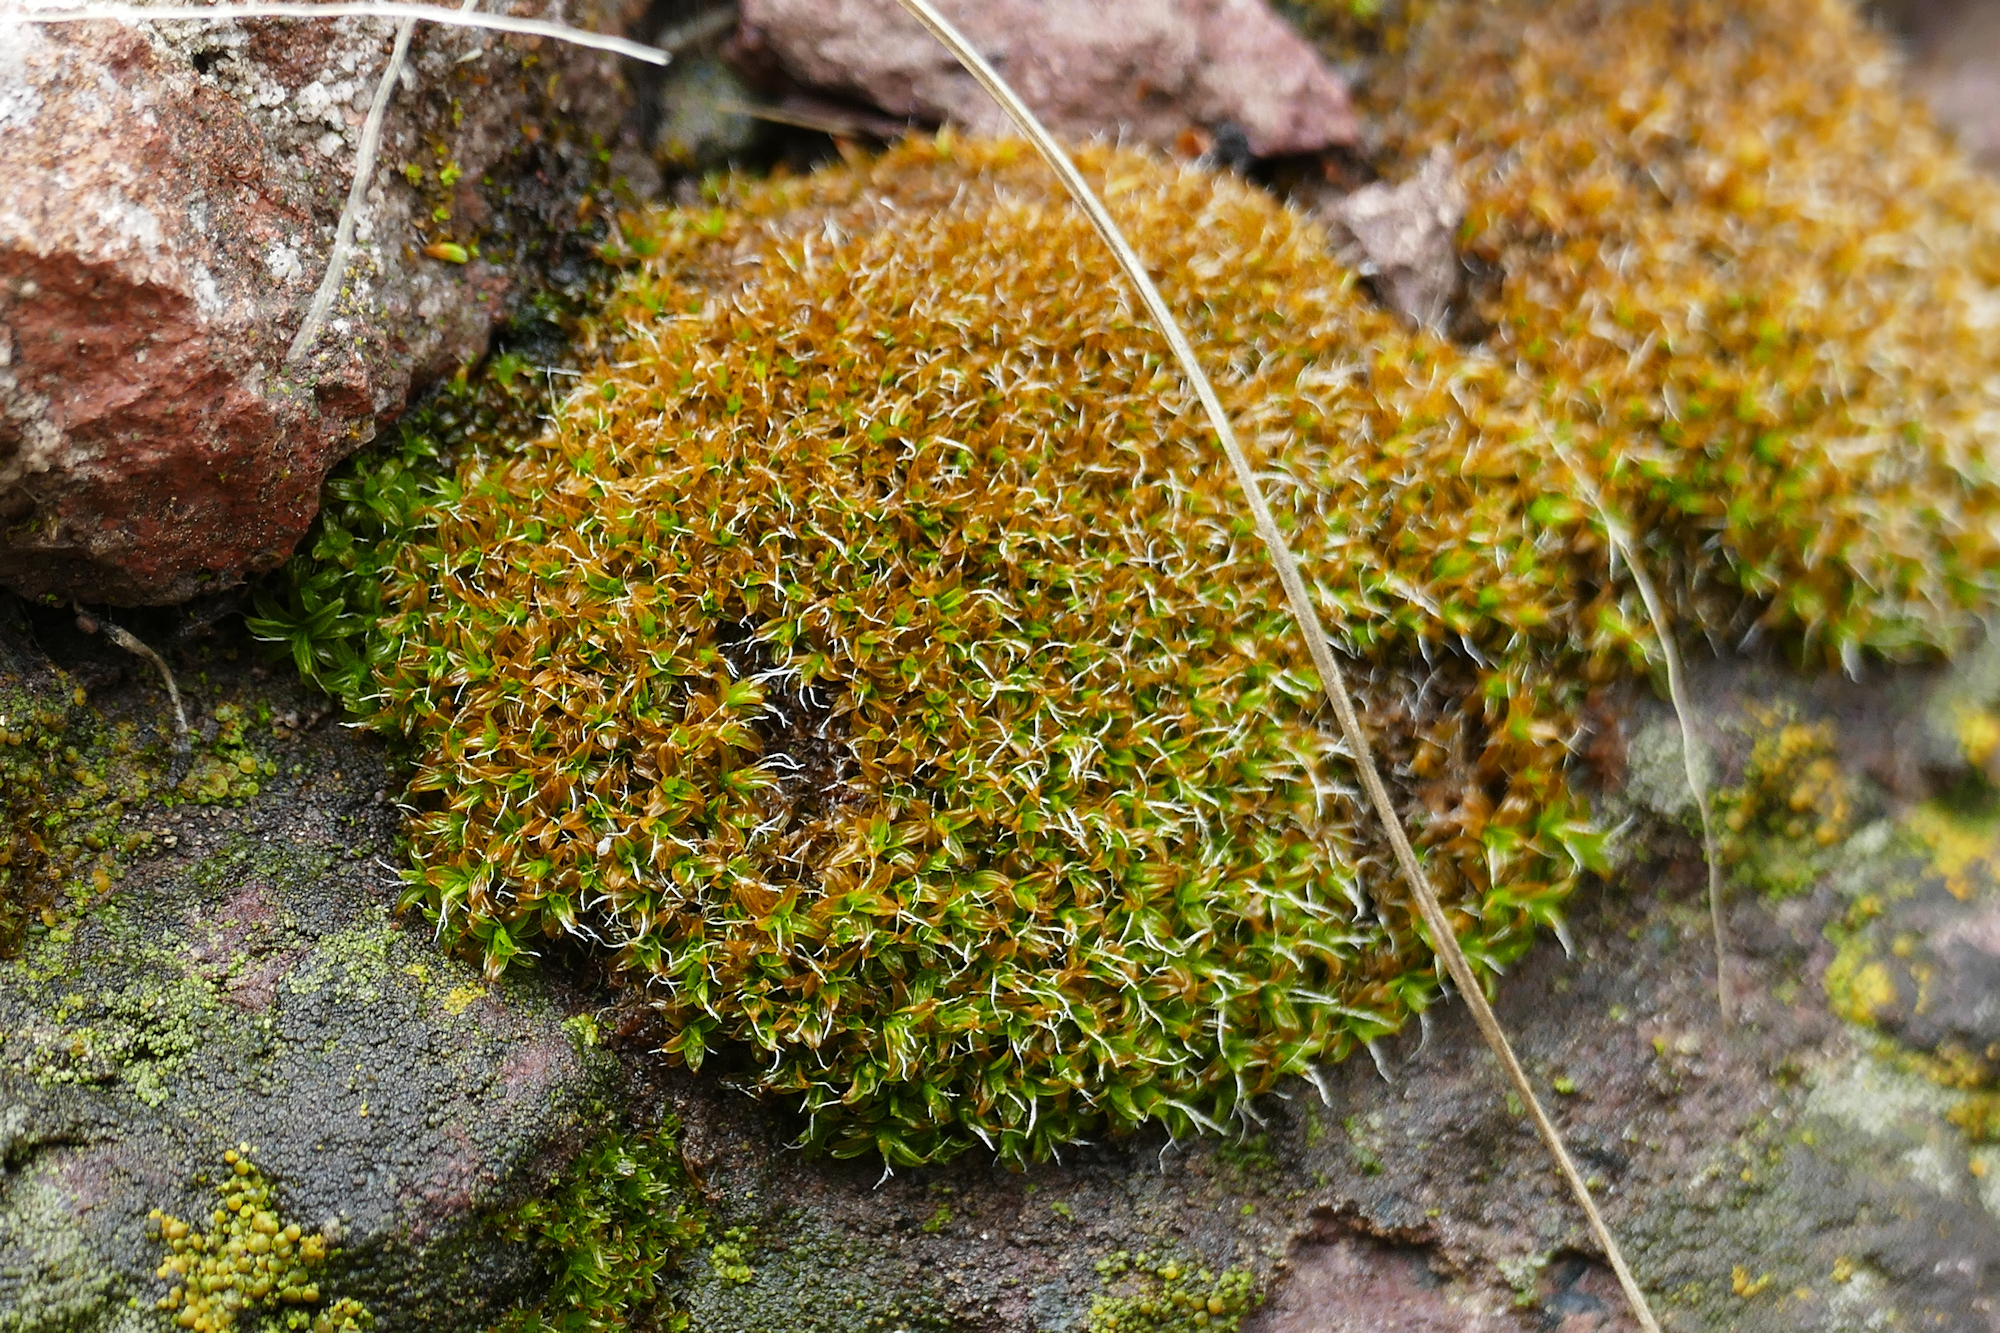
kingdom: Plantae
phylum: Bryophyta
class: Bryopsida
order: Pottiales
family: Pottiaceae
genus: Syntrichia
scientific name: Syntrichia ruralis
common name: Sidewalk screw moss
